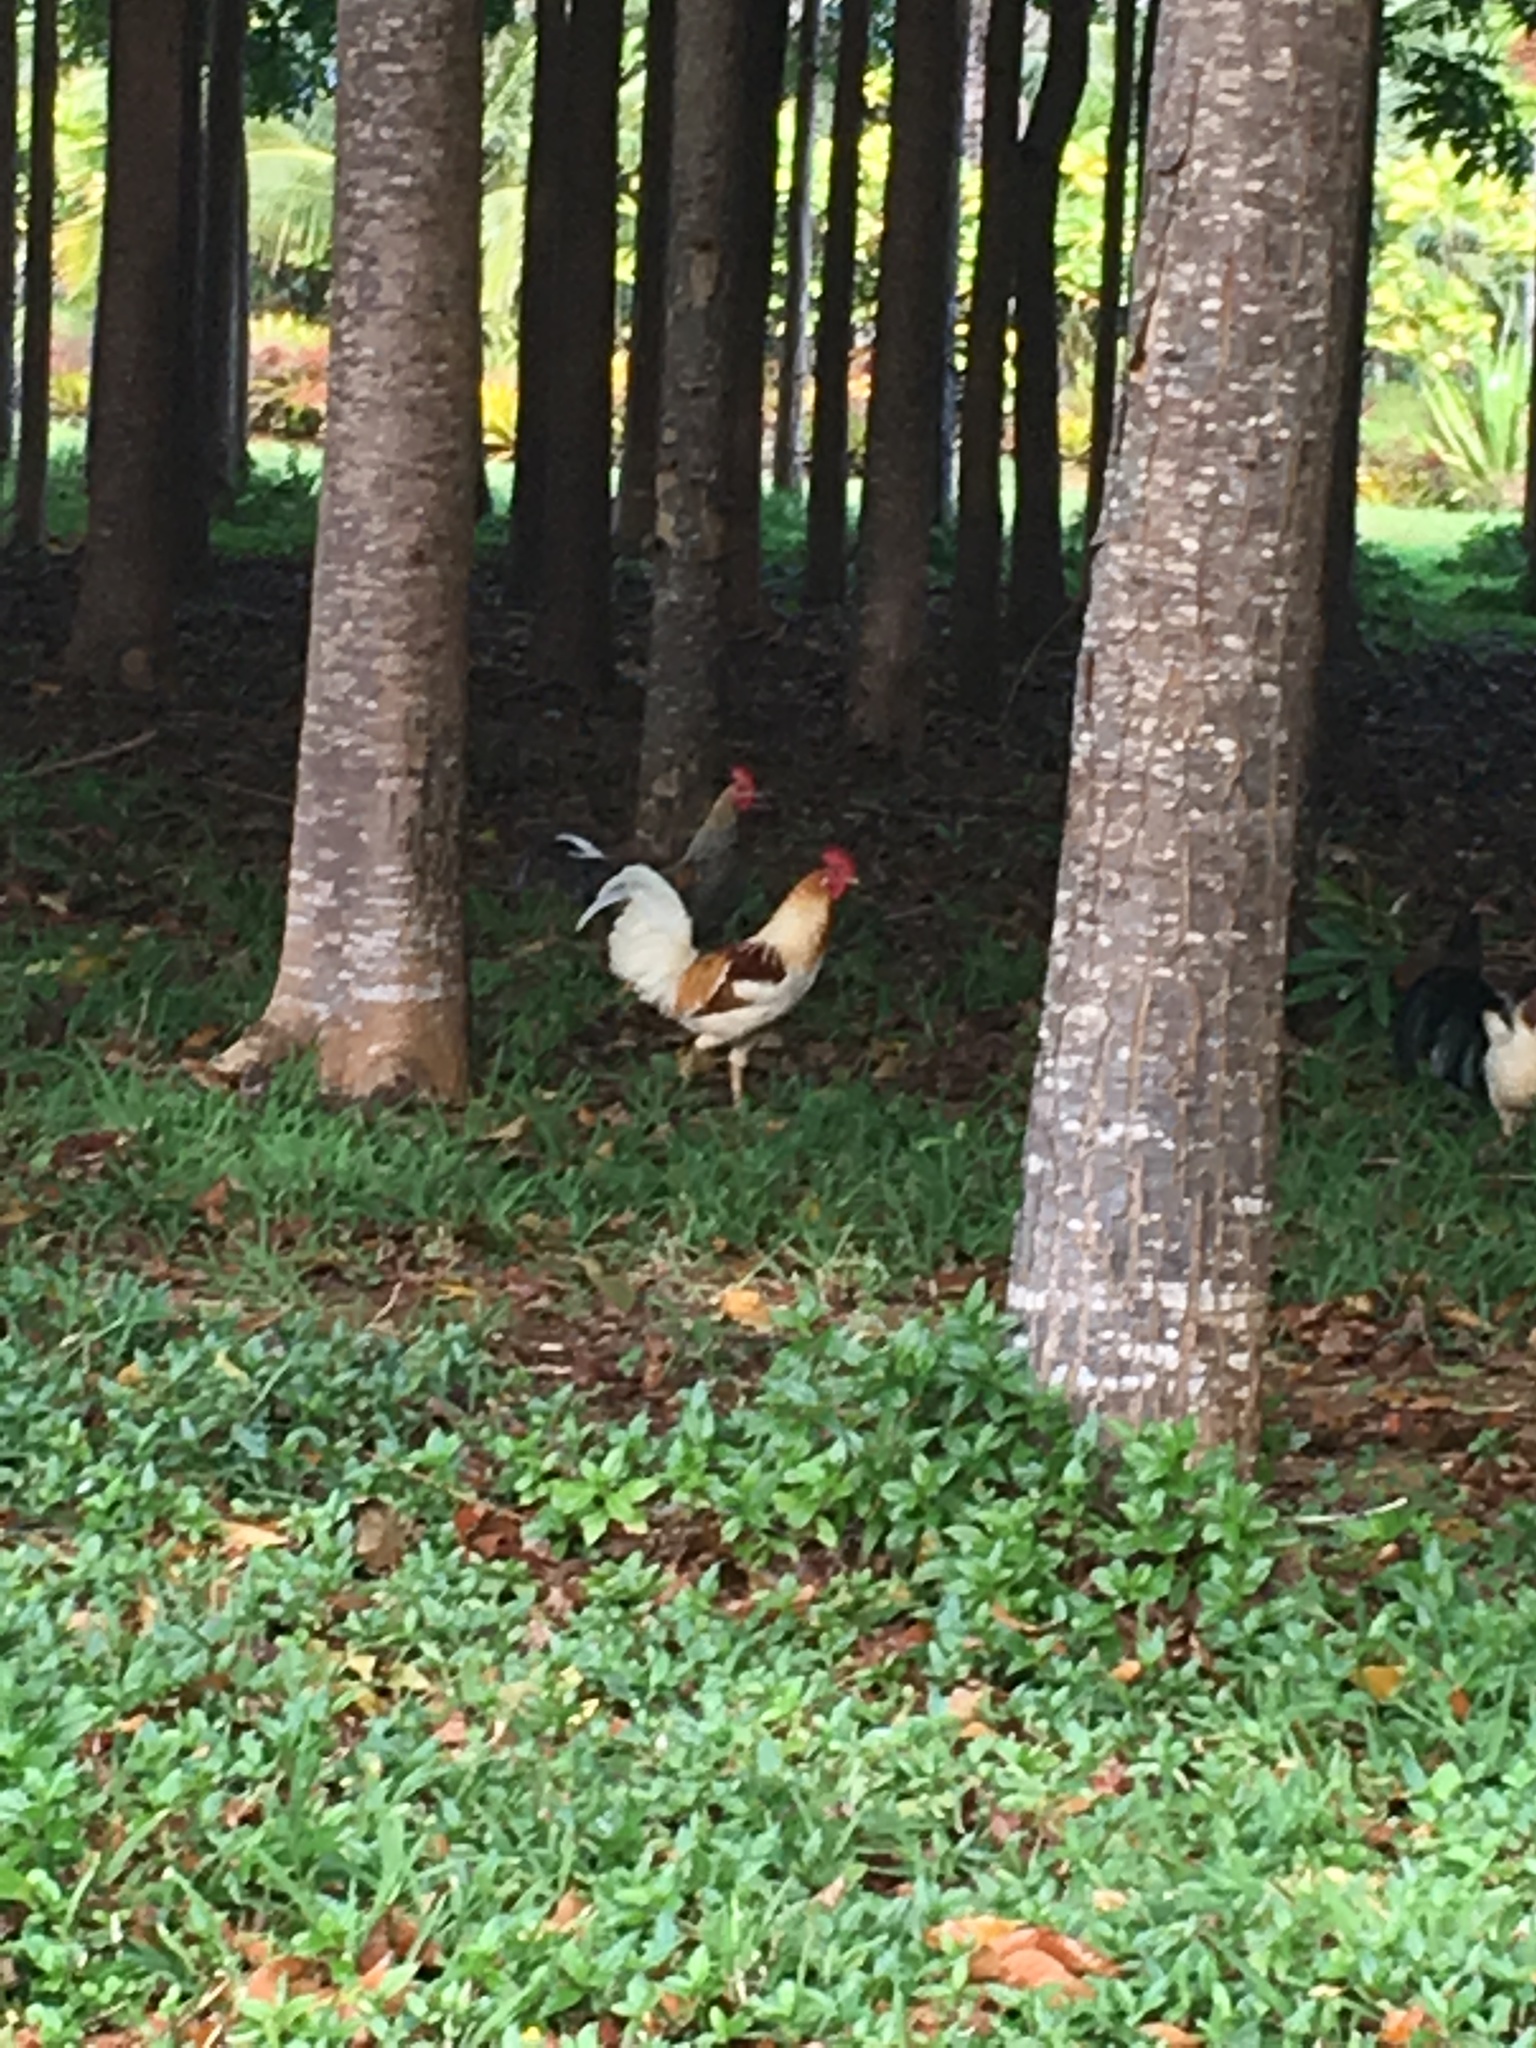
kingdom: Animalia
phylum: Chordata
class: Aves
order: Galliformes
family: Phasianidae
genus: Gallus
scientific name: Gallus gallus
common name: Red junglefowl
